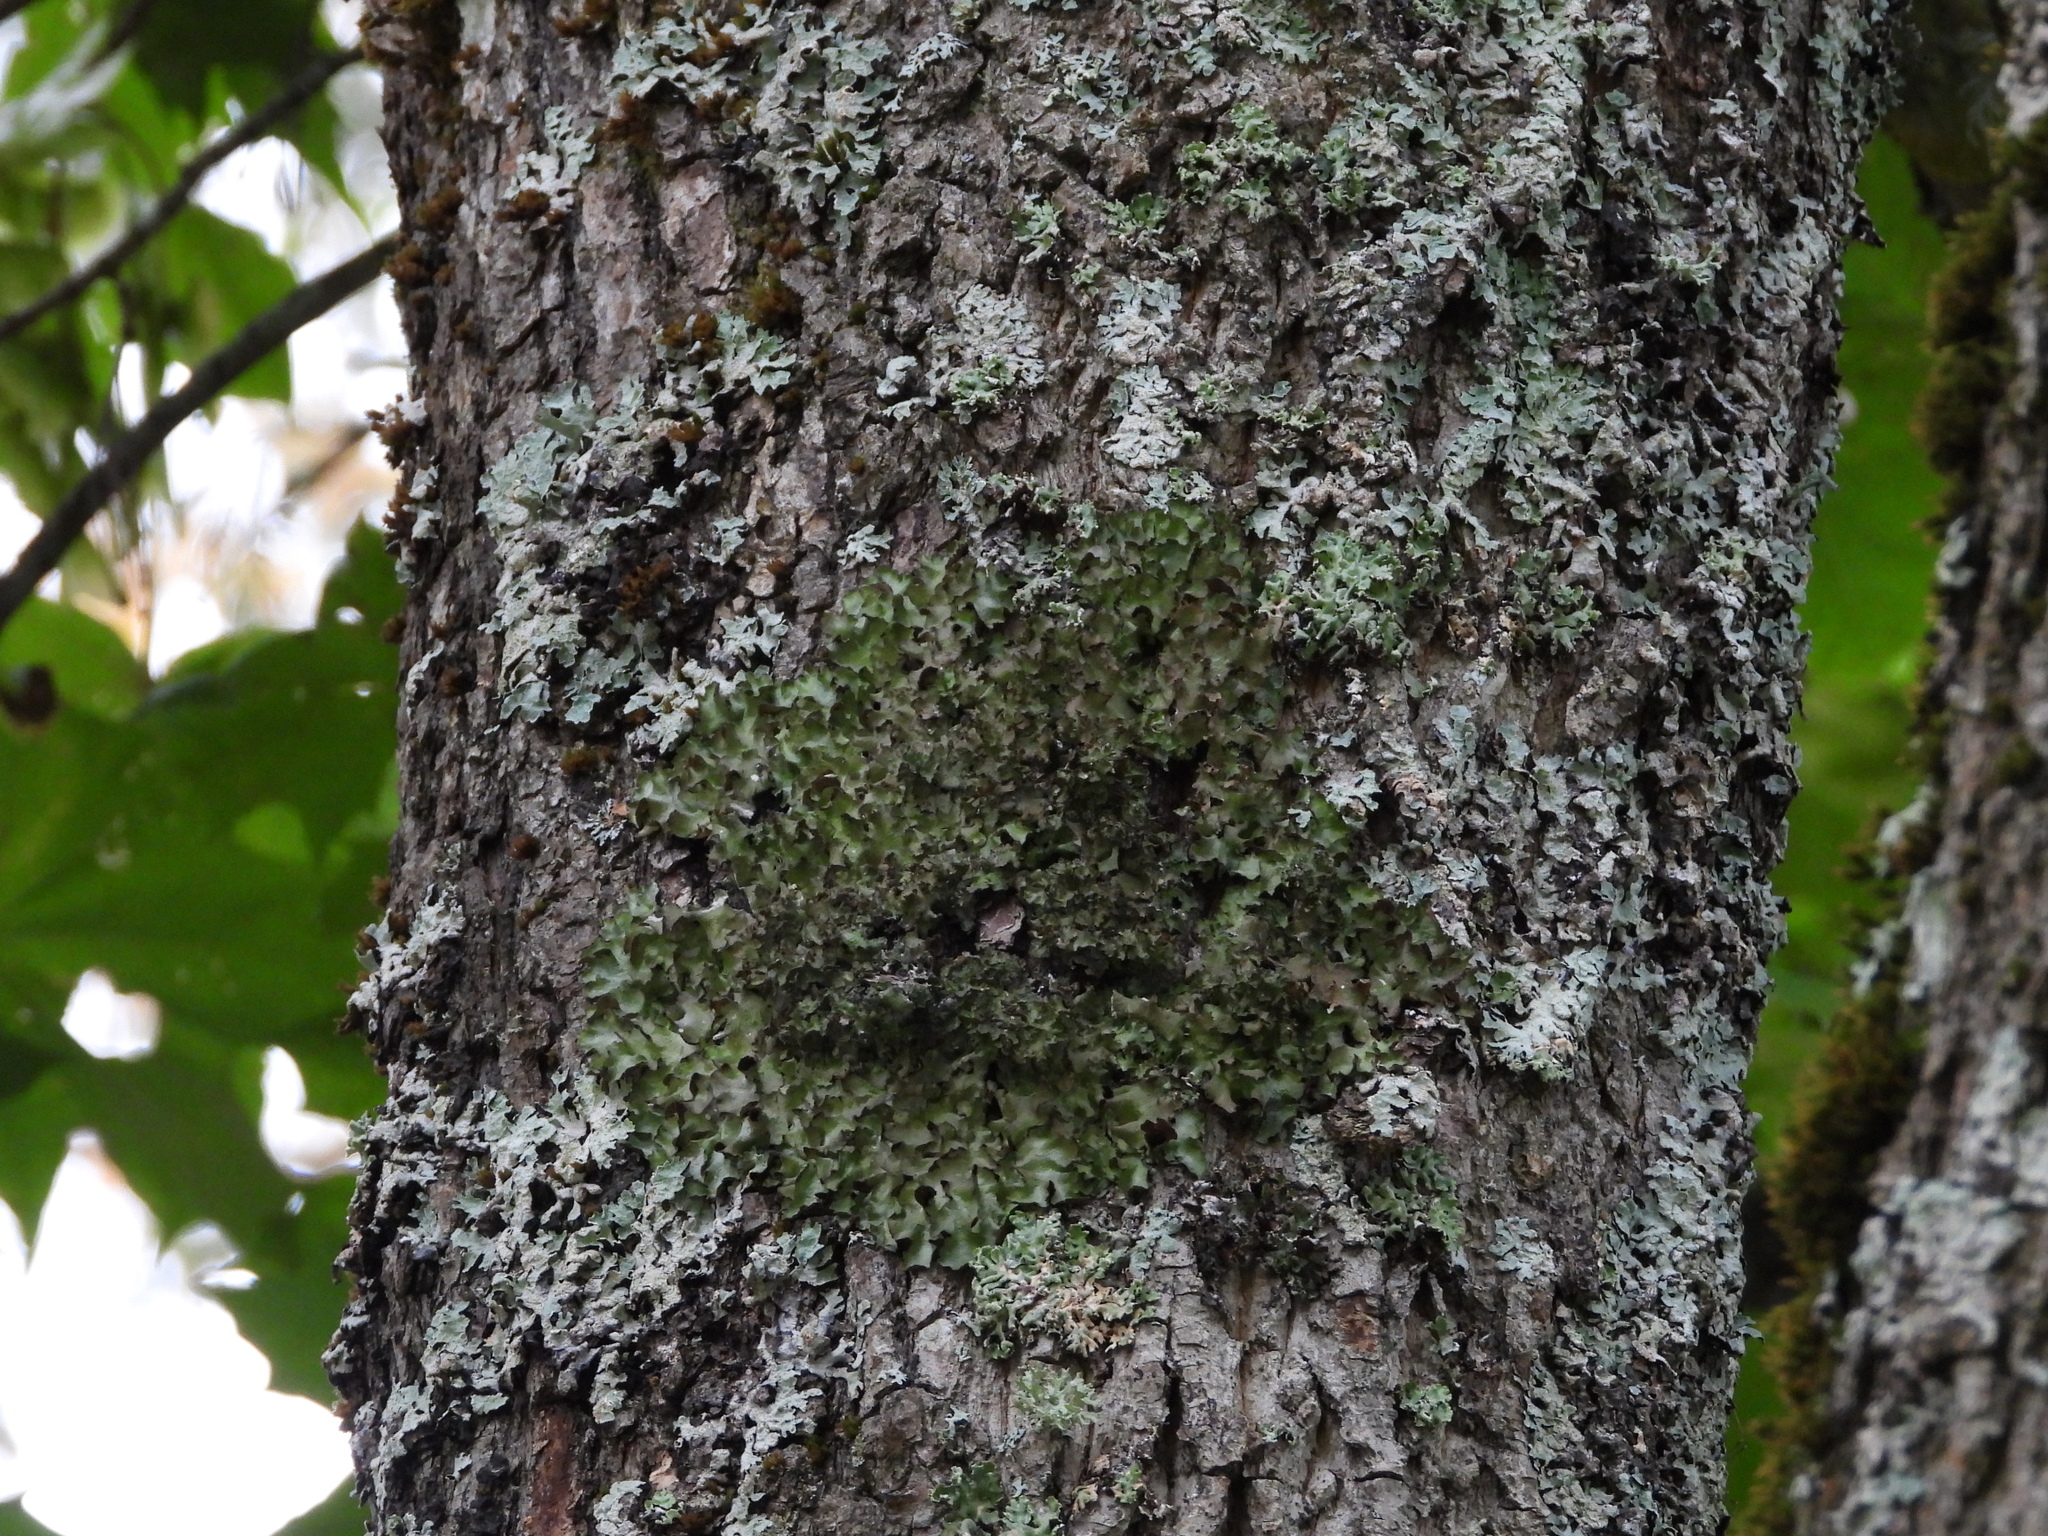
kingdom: Fungi
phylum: Ascomycota
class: Lecanoromycetes
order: Lecanorales
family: Parmeliaceae
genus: Pleurosticta
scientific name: Pleurosticta acetabulum
